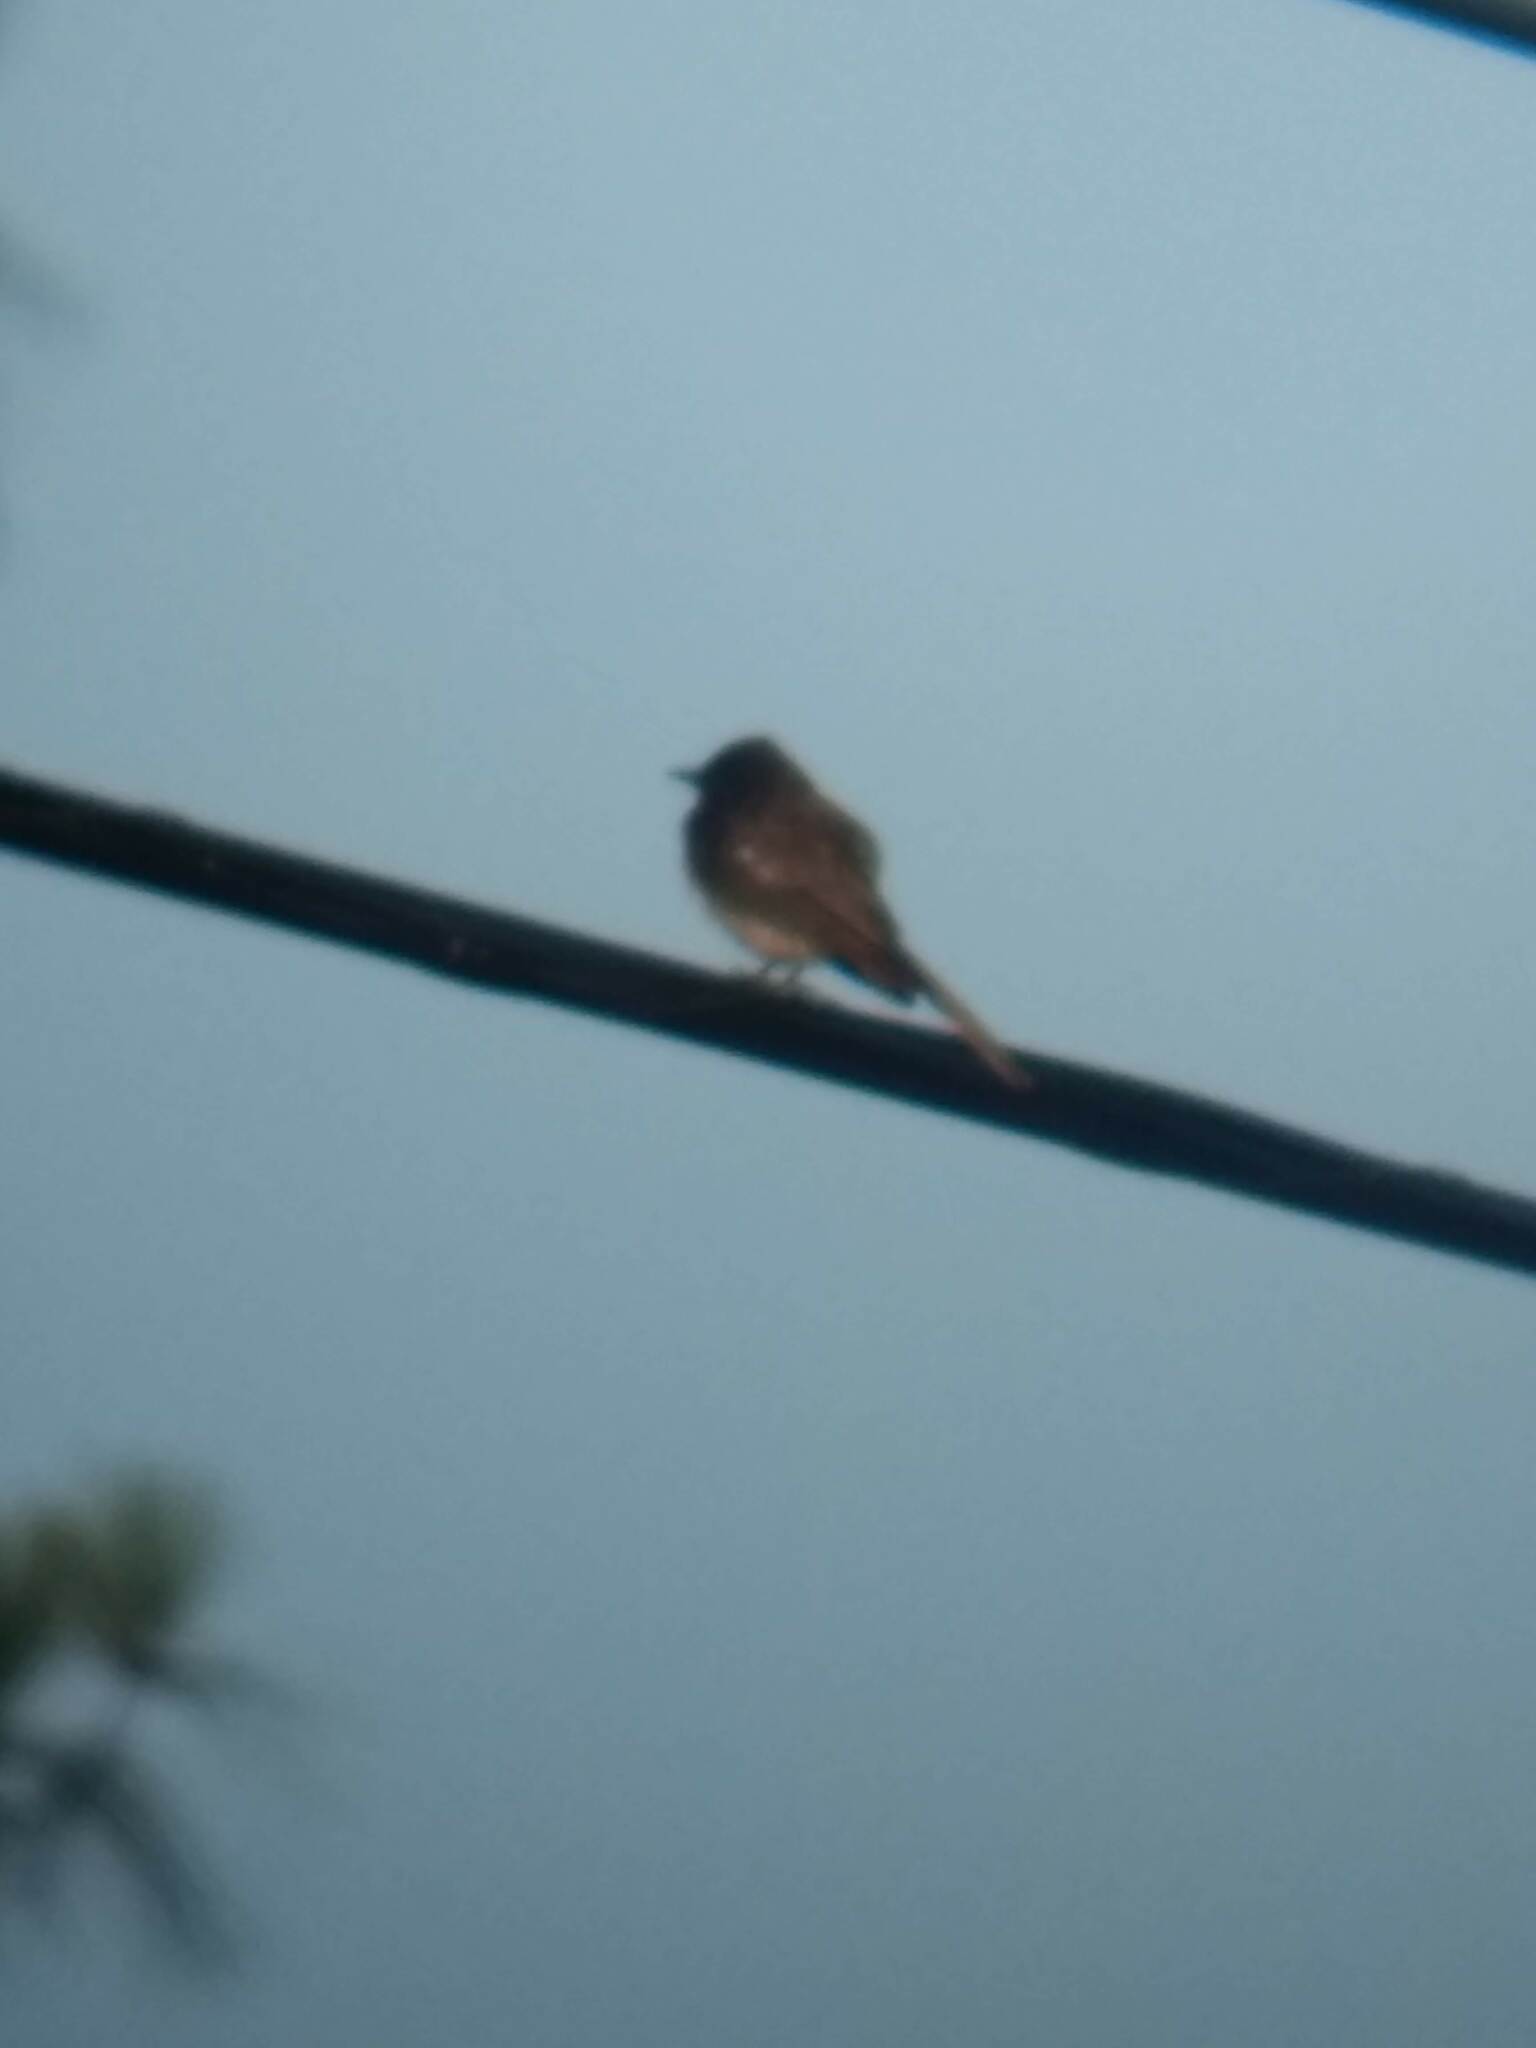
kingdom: Animalia
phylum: Chordata
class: Aves
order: Passeriformes
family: Tyrannidae
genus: Sayornis
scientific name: Sayornis nigricans
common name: Black phoebe
